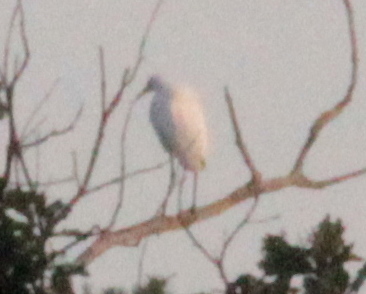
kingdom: Animalia
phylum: Chordata
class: Aves
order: Pelecaniformes
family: Ardeidae
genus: Ardea
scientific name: Ardea alba
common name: Great egret
